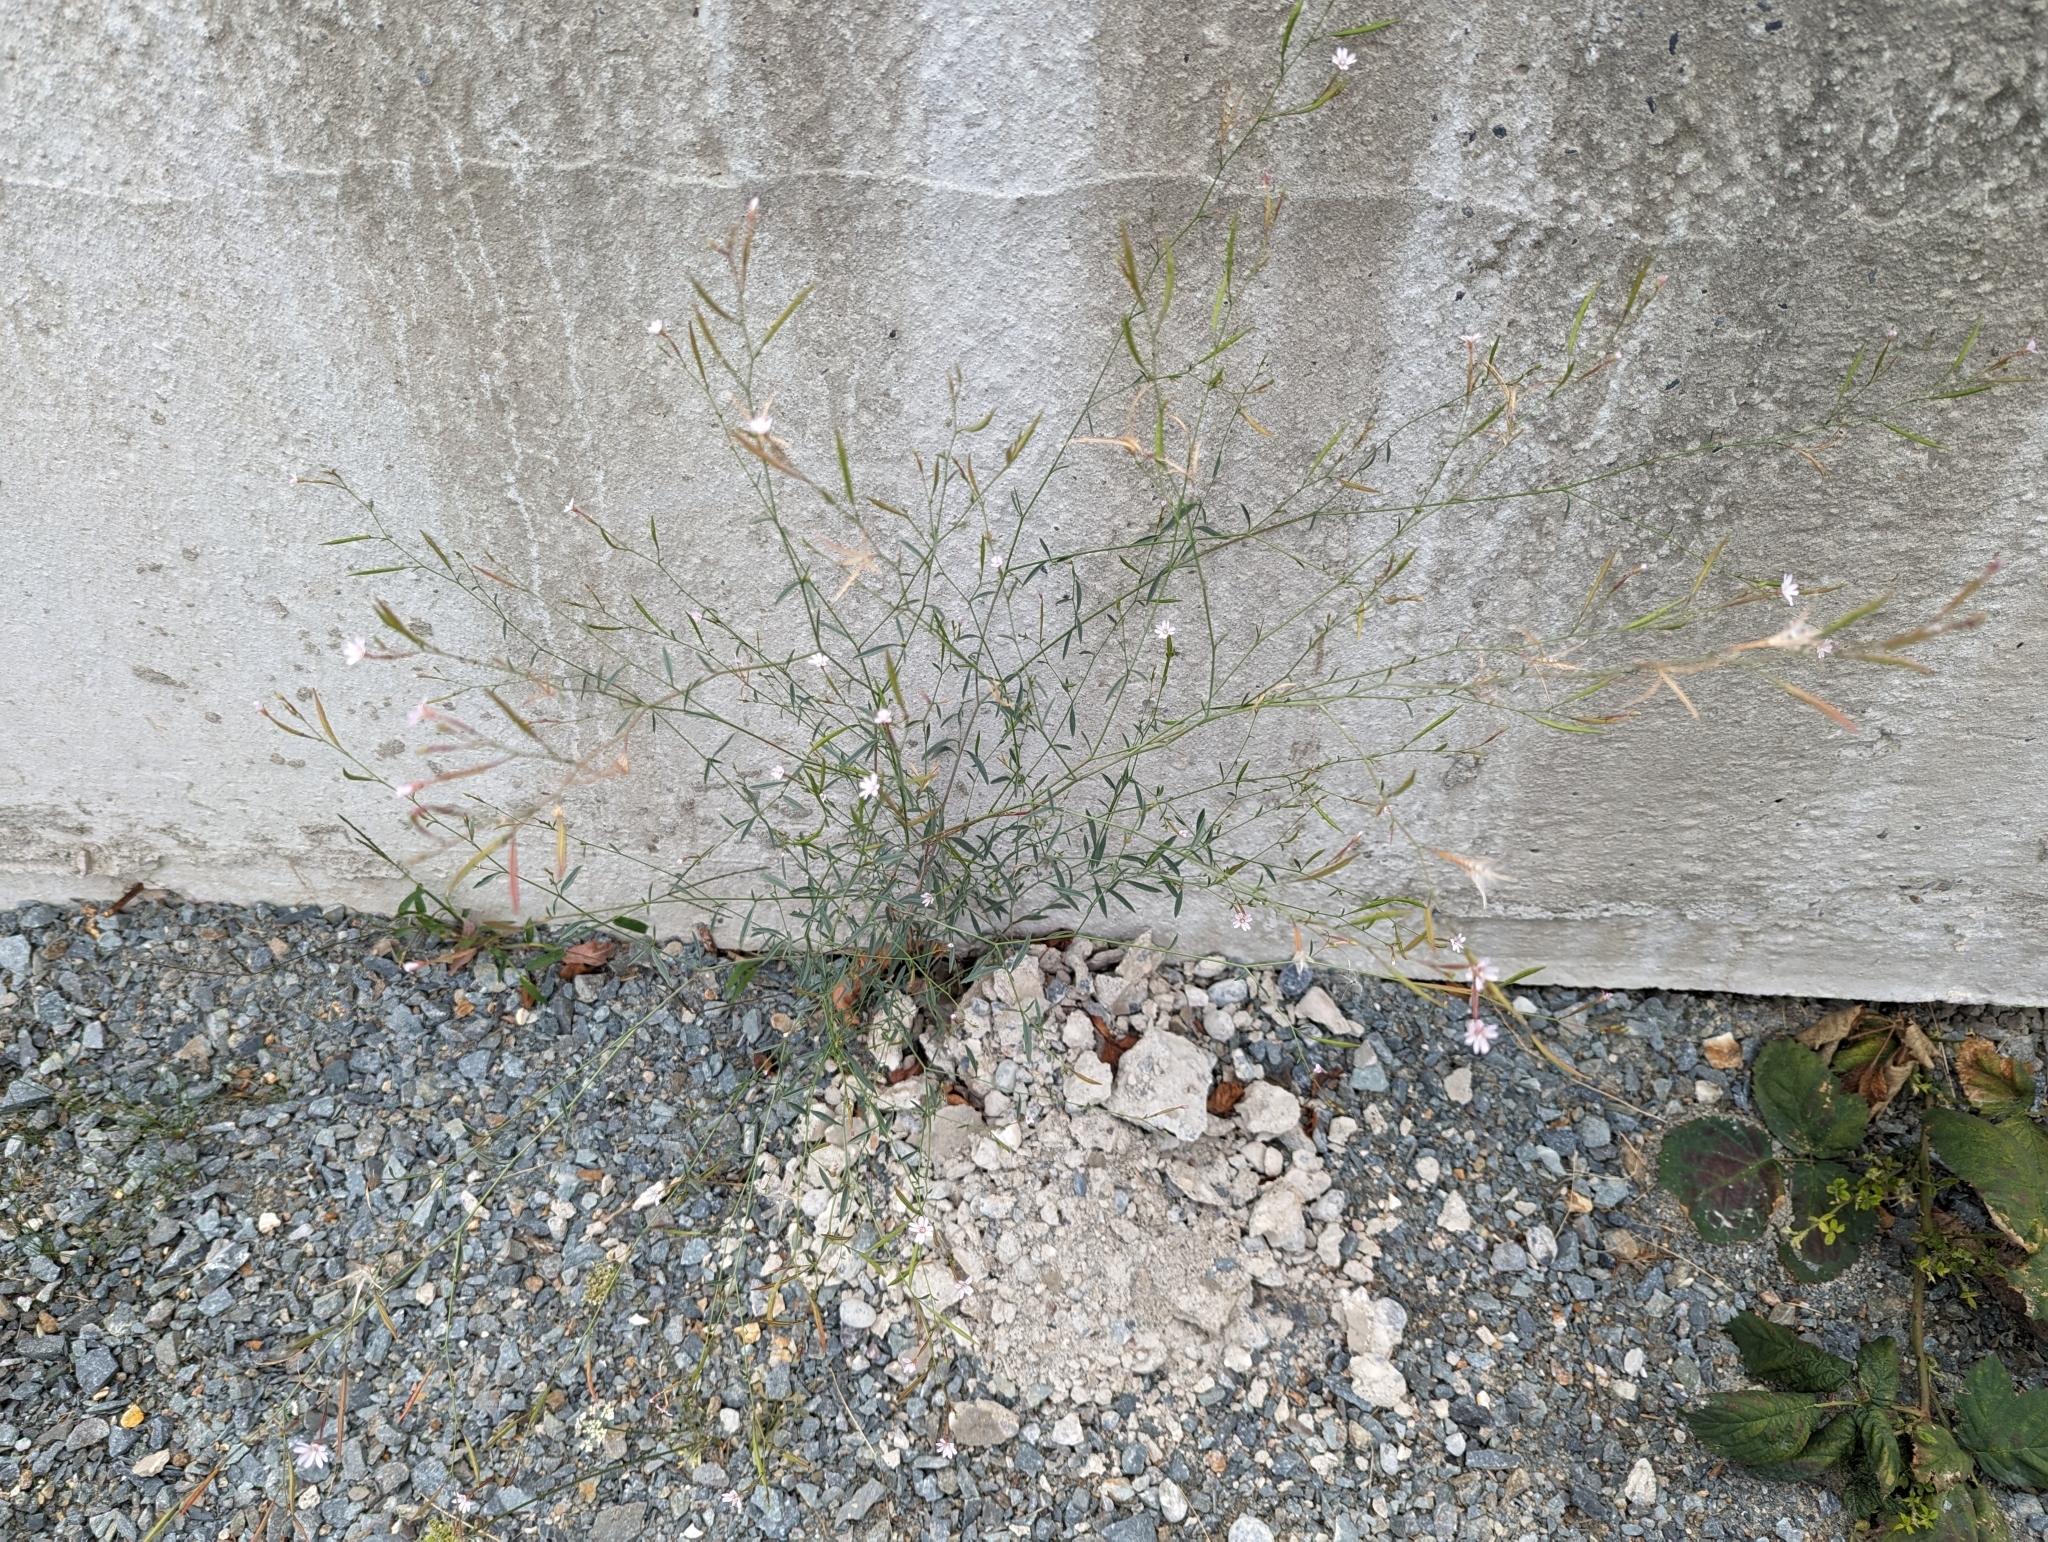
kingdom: Plantae
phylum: Tracheophyta
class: Magnoliopsida
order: Myrtales
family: Onagraceae
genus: Epilobium
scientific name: Epilobium brachycarpum
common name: Annual willowherb
